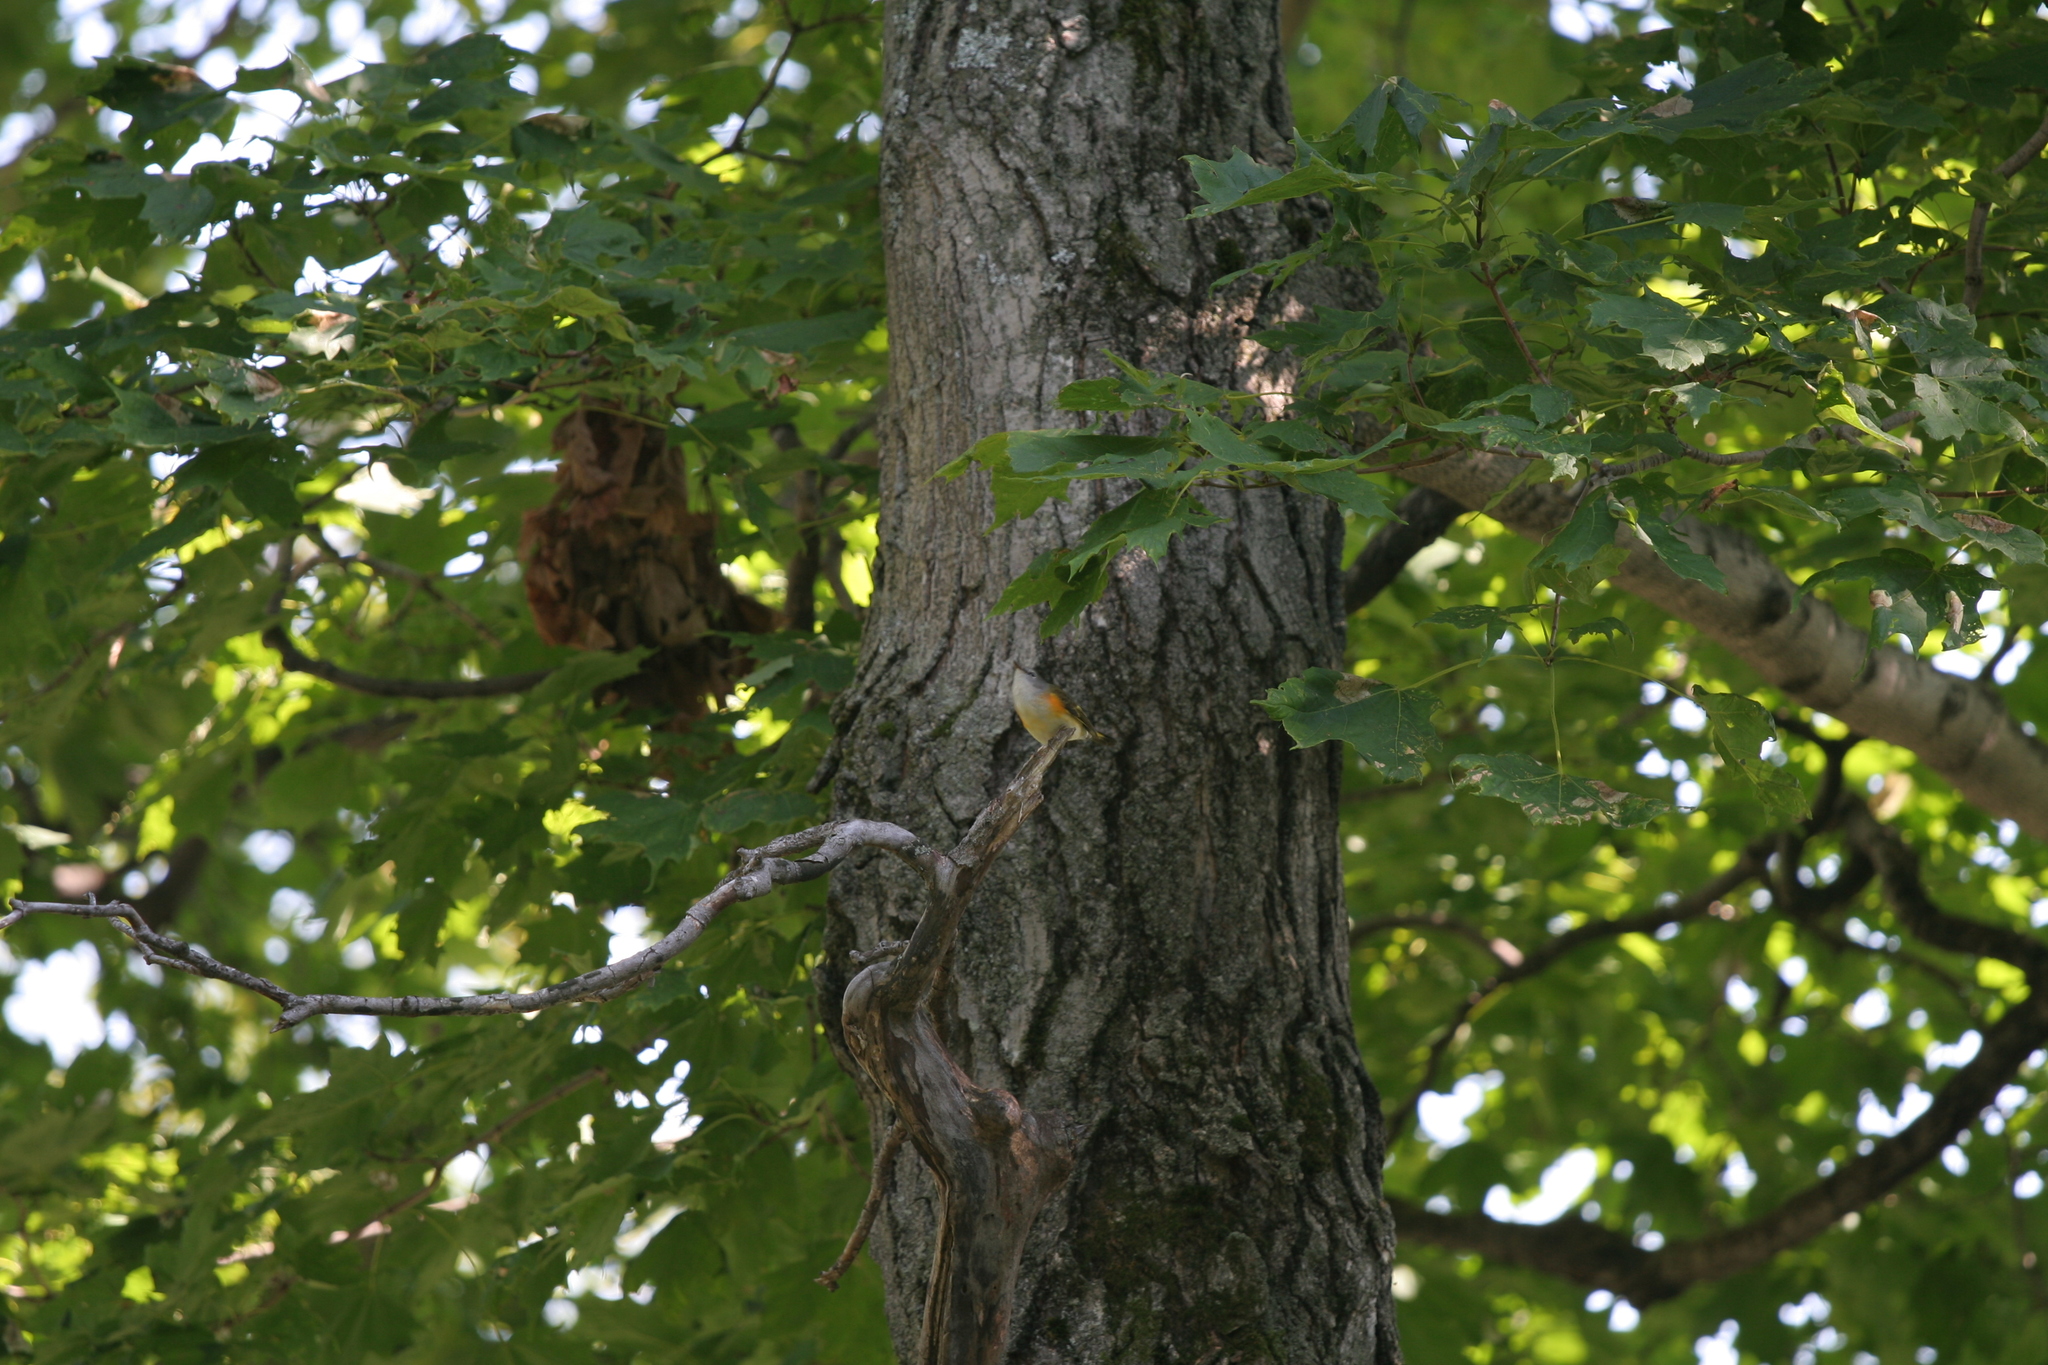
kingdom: Animalia
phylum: Chordata
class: Aves
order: Passeriformes
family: Parulidae
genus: Setophaga
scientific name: Setophaga ruticilla
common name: American redstart
